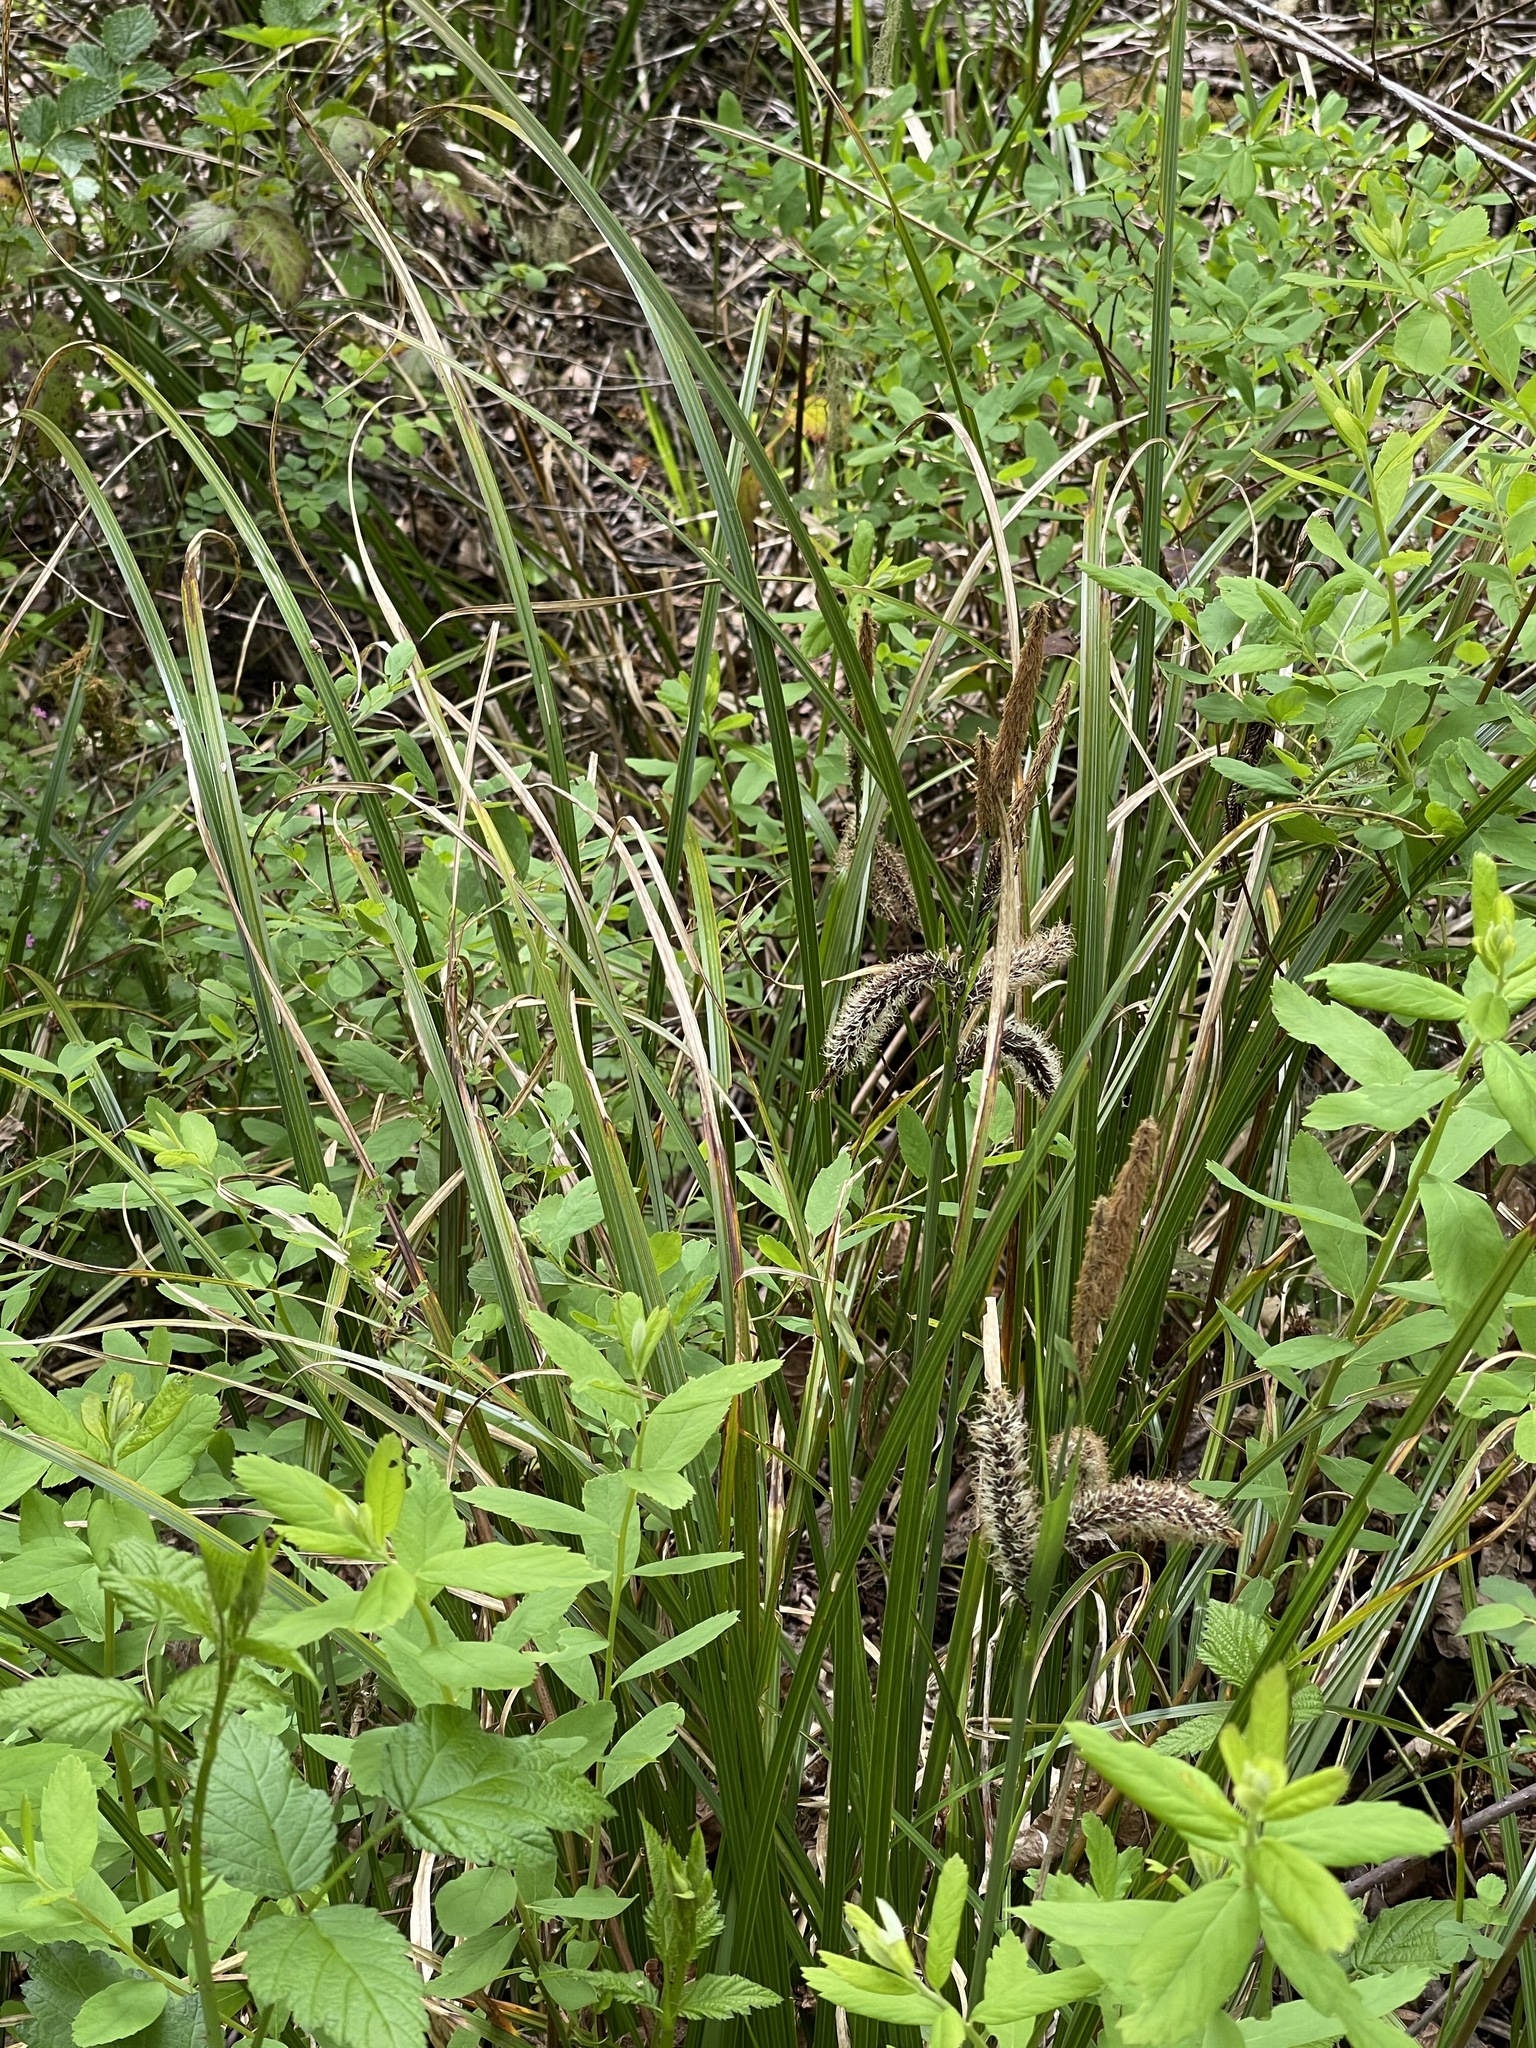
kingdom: Plantae
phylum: Tracheophyta
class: Liliopsida
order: Poales
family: Cyperaceae
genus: Carex
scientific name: Carex obnupta
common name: Slough sedge
